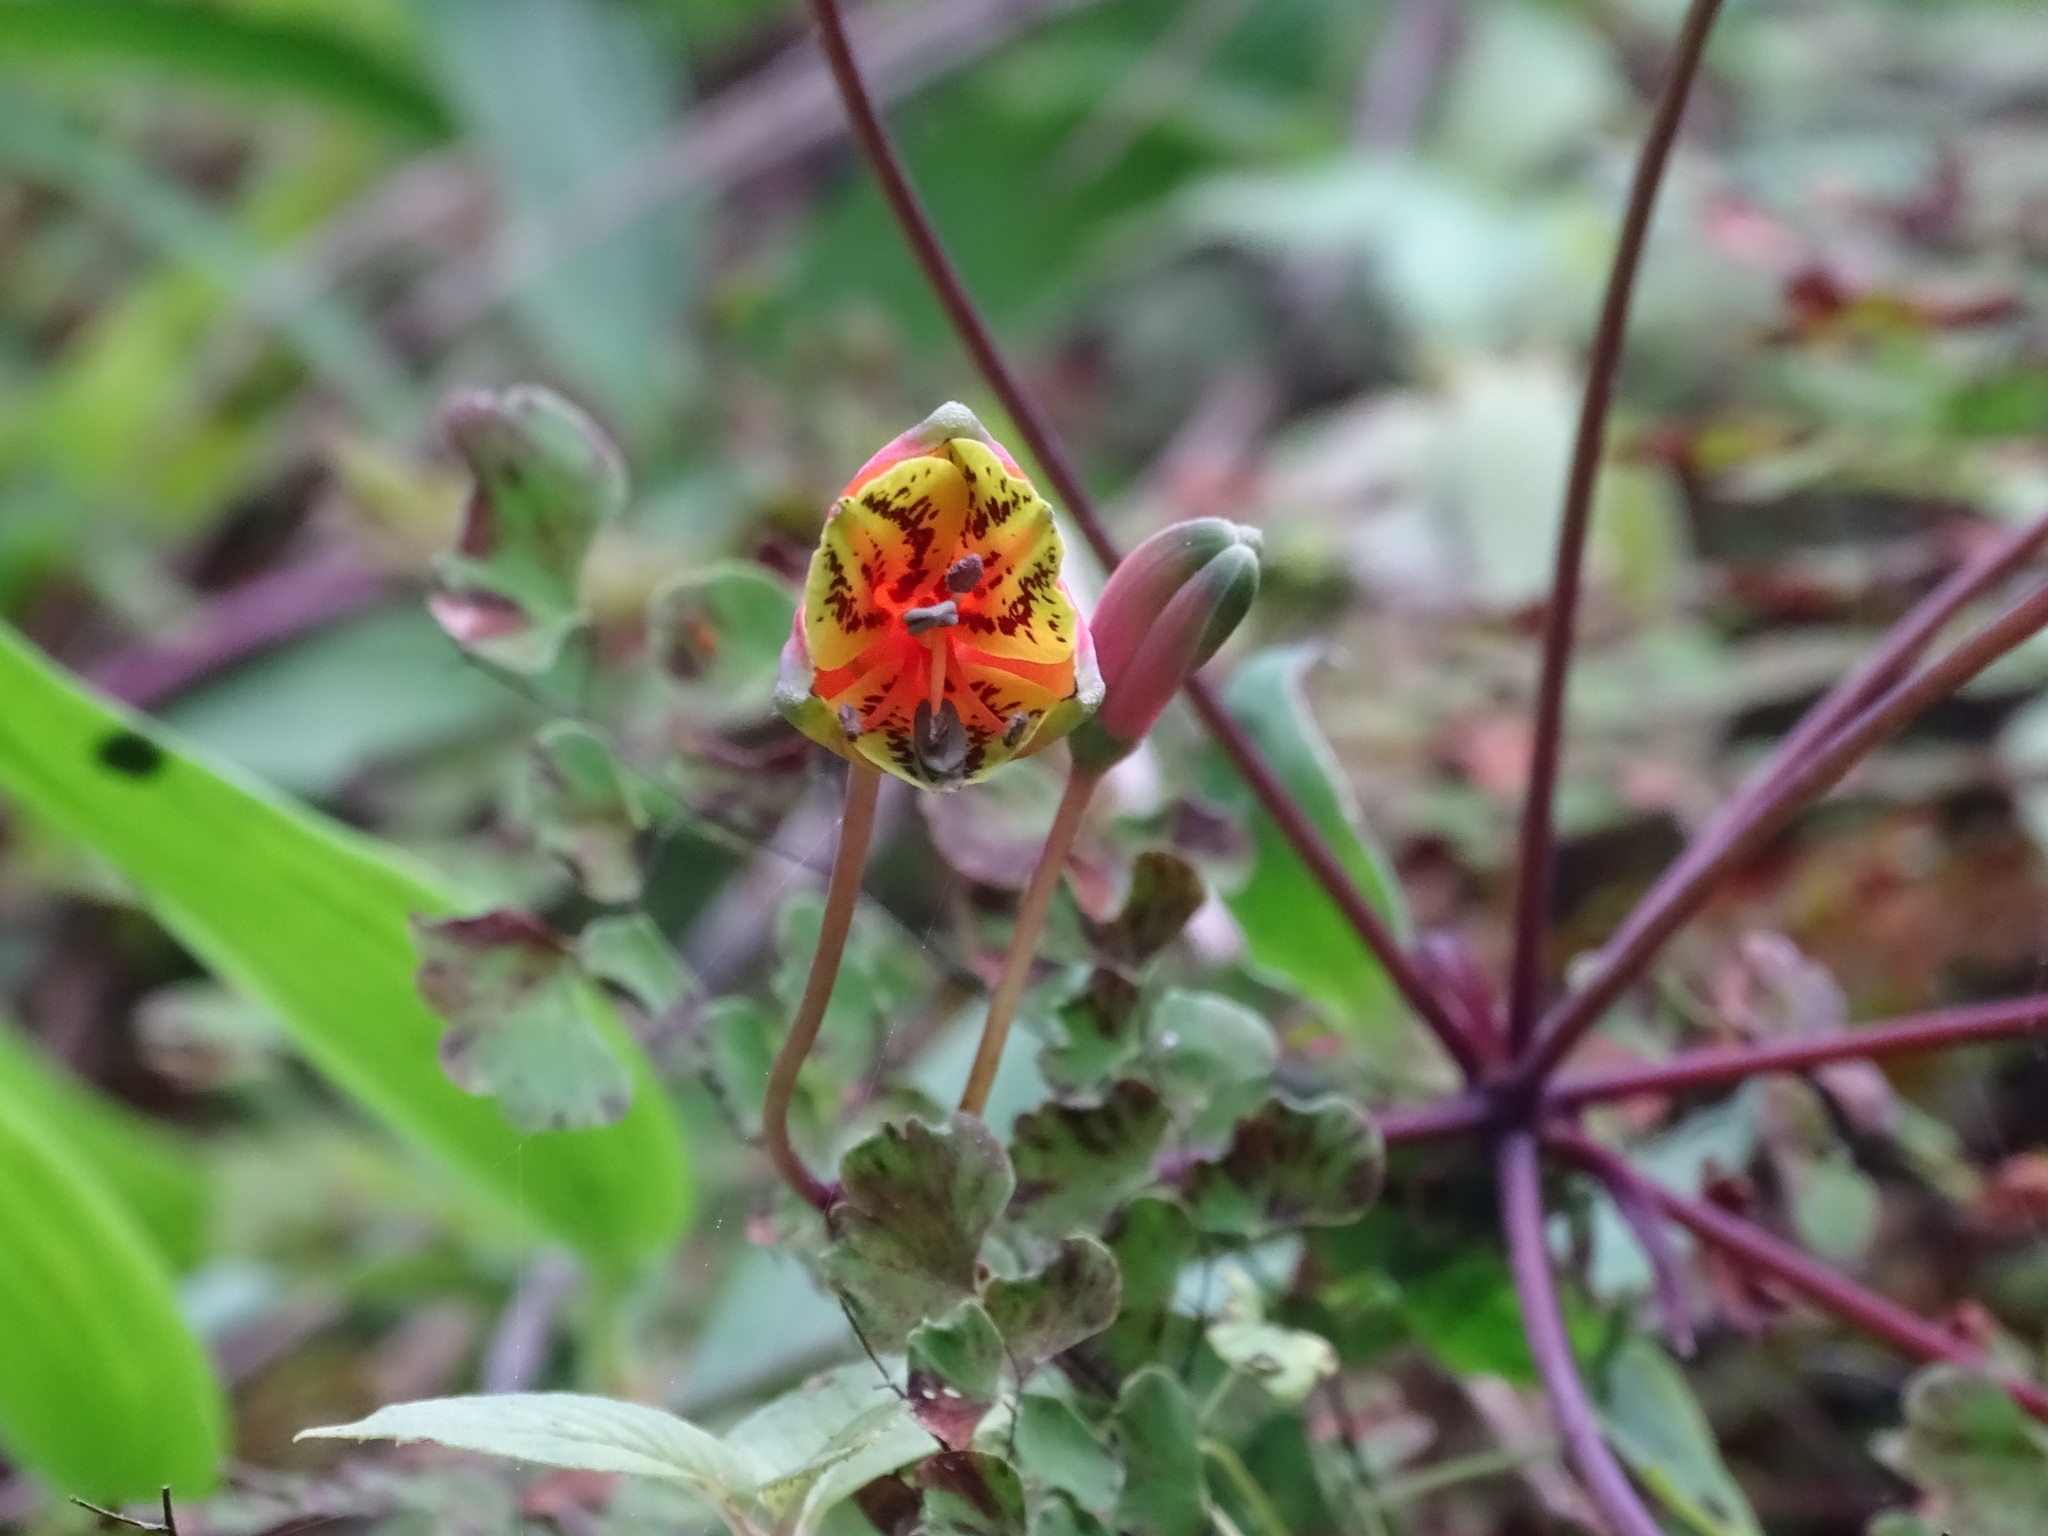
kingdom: Plantae
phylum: Tracheophyta
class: Liliopsida
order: Liliales
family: Alstroemeriaceae
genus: Bomarea
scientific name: Bomarea edulis
